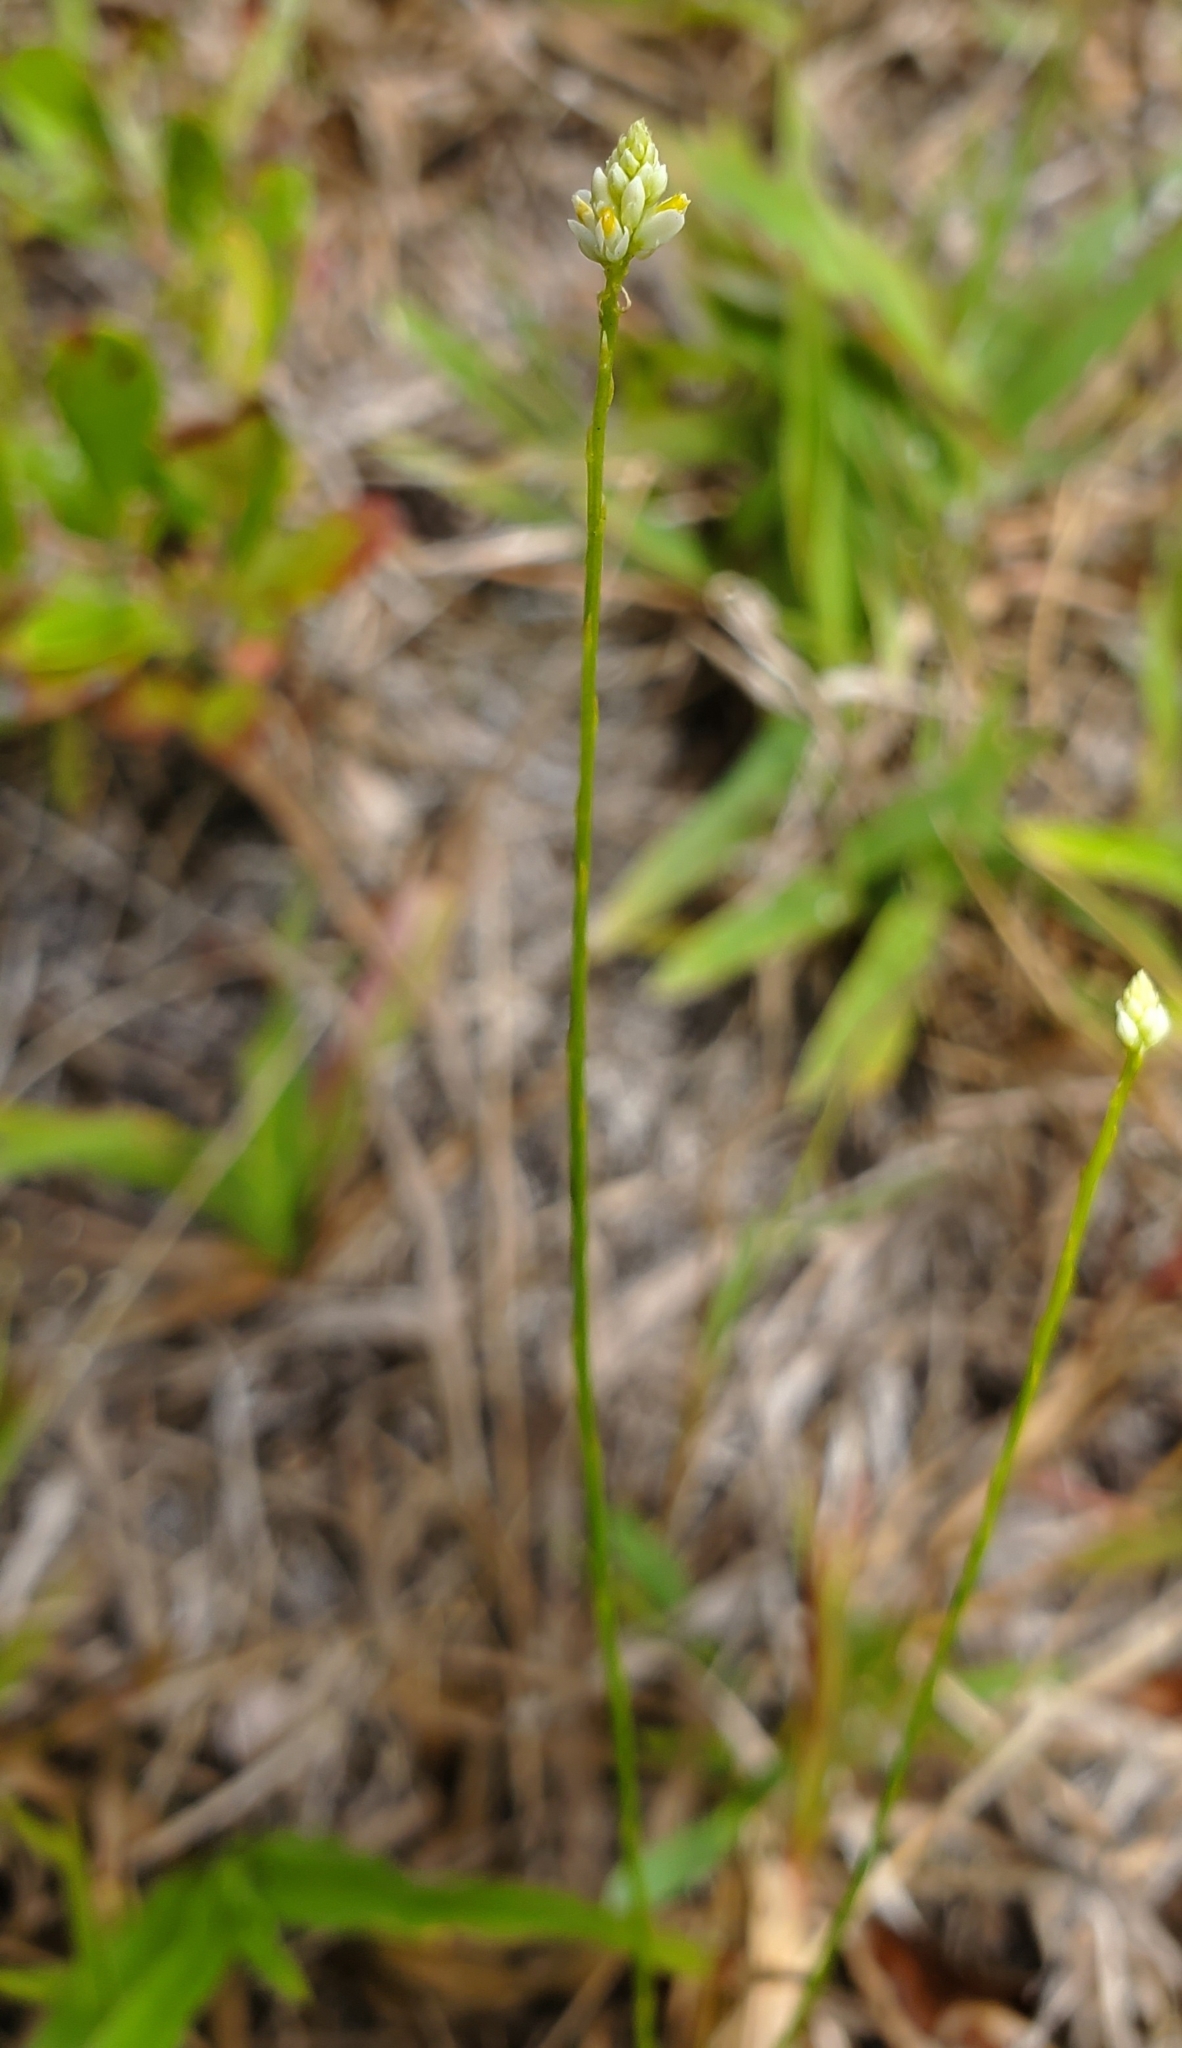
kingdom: Plantae
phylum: Tracheophyta
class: Magnoliopsida
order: Fabales
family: Polygalaceae
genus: Polygala
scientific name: Polygala setacea
